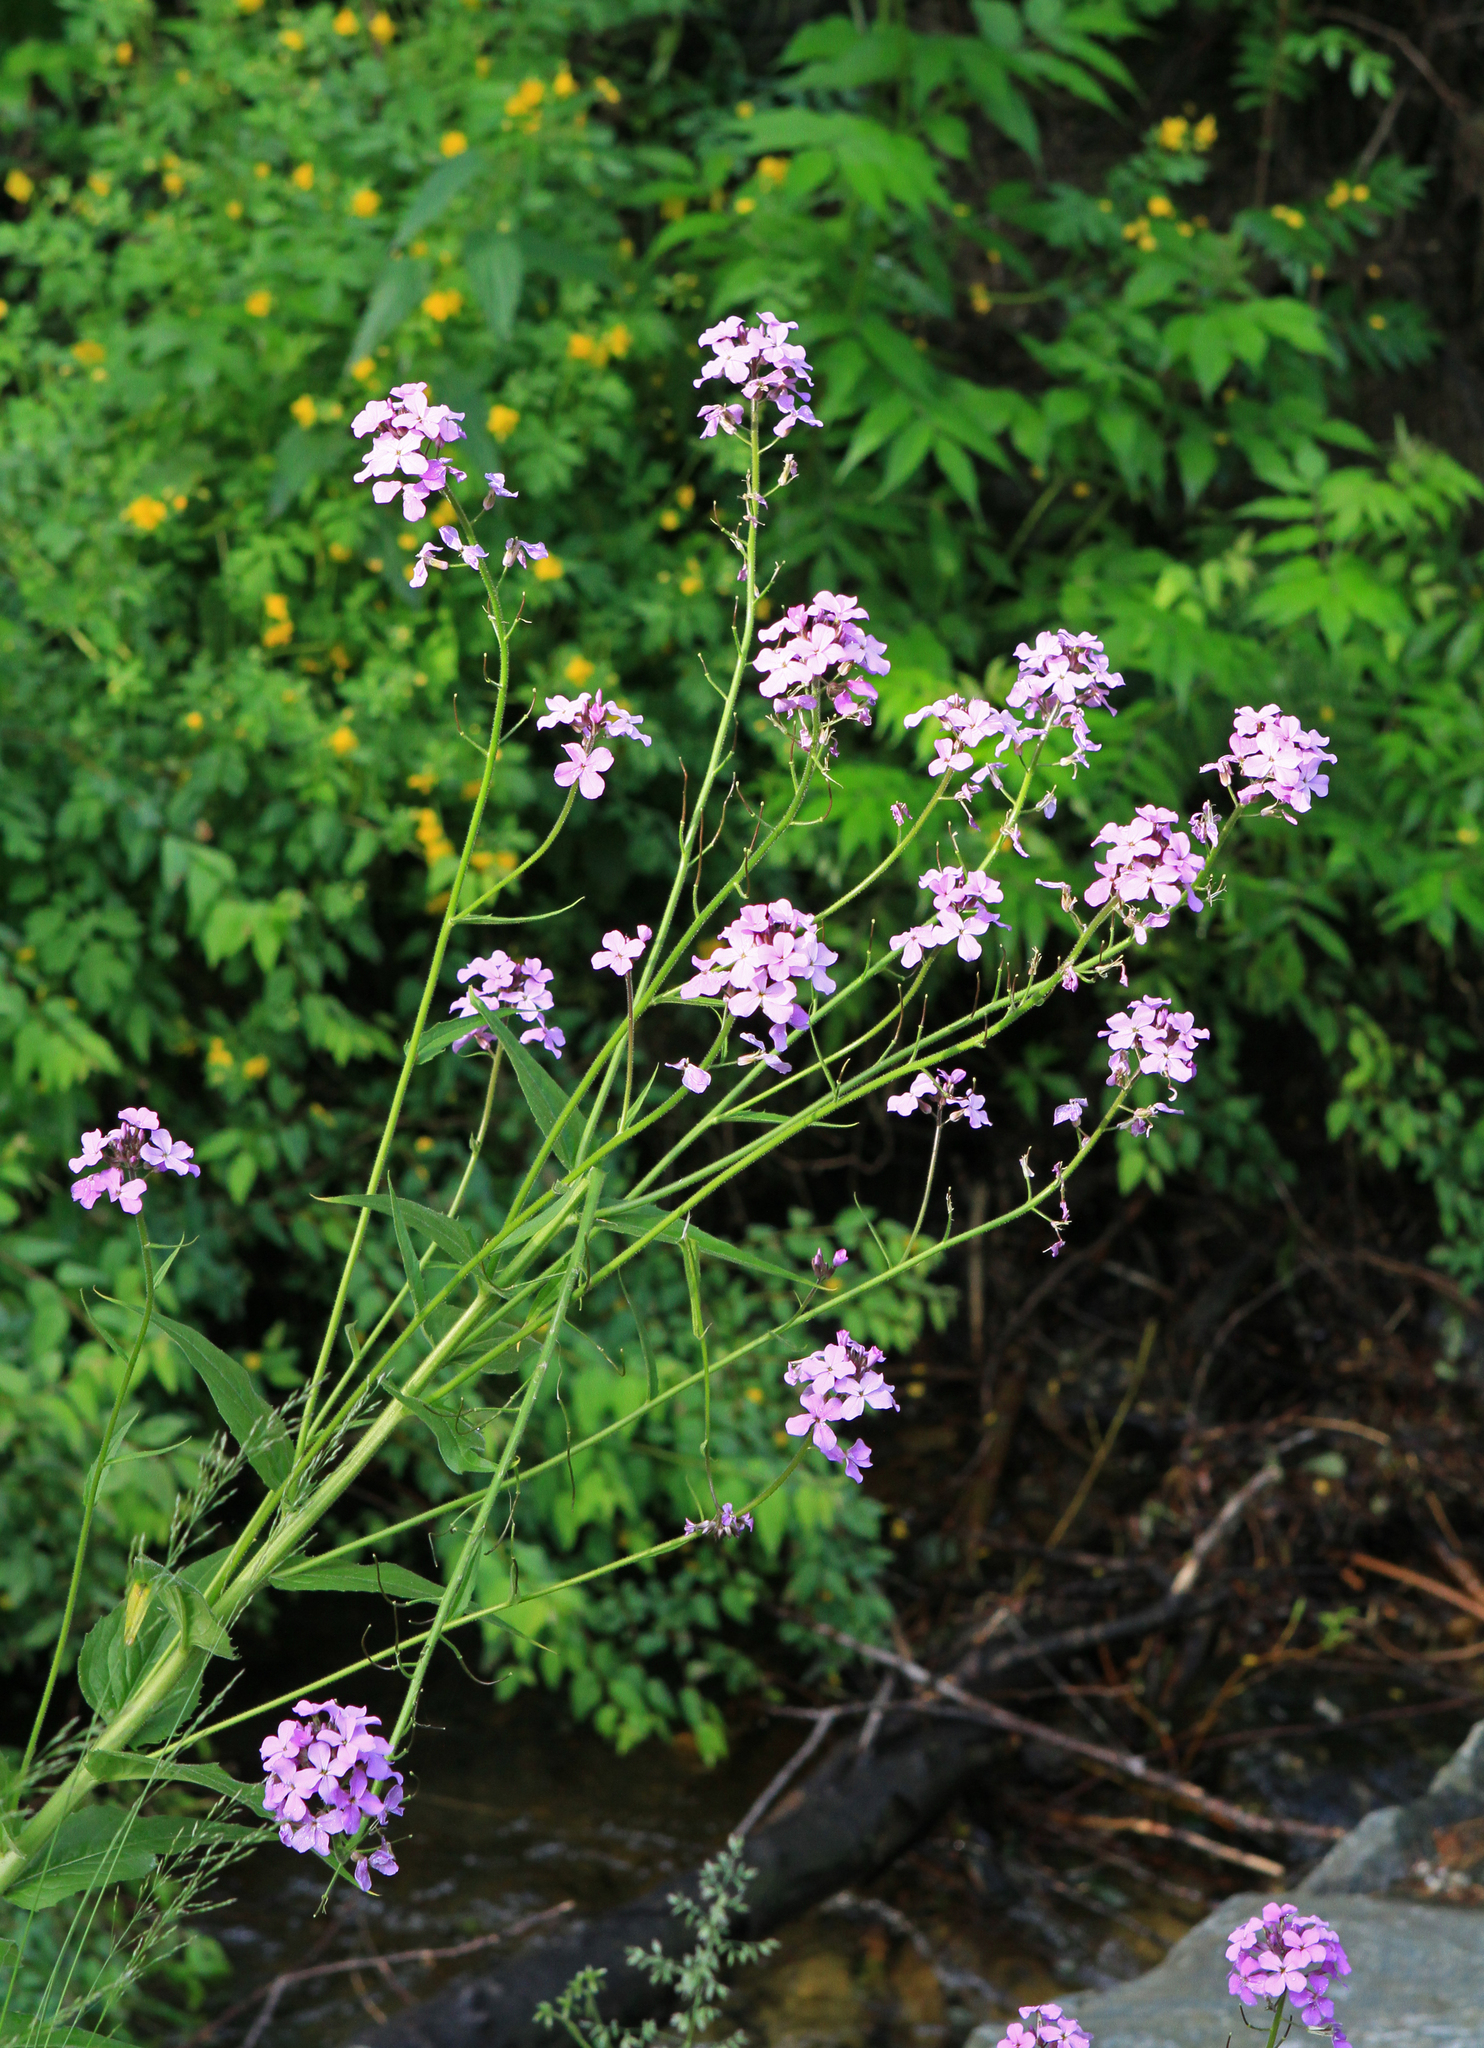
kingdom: Plantae
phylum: Tracheophyta
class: Magnoliopsida
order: Brassicales
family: Brassicaceae
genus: Hesperis
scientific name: Hesperis sibirica
